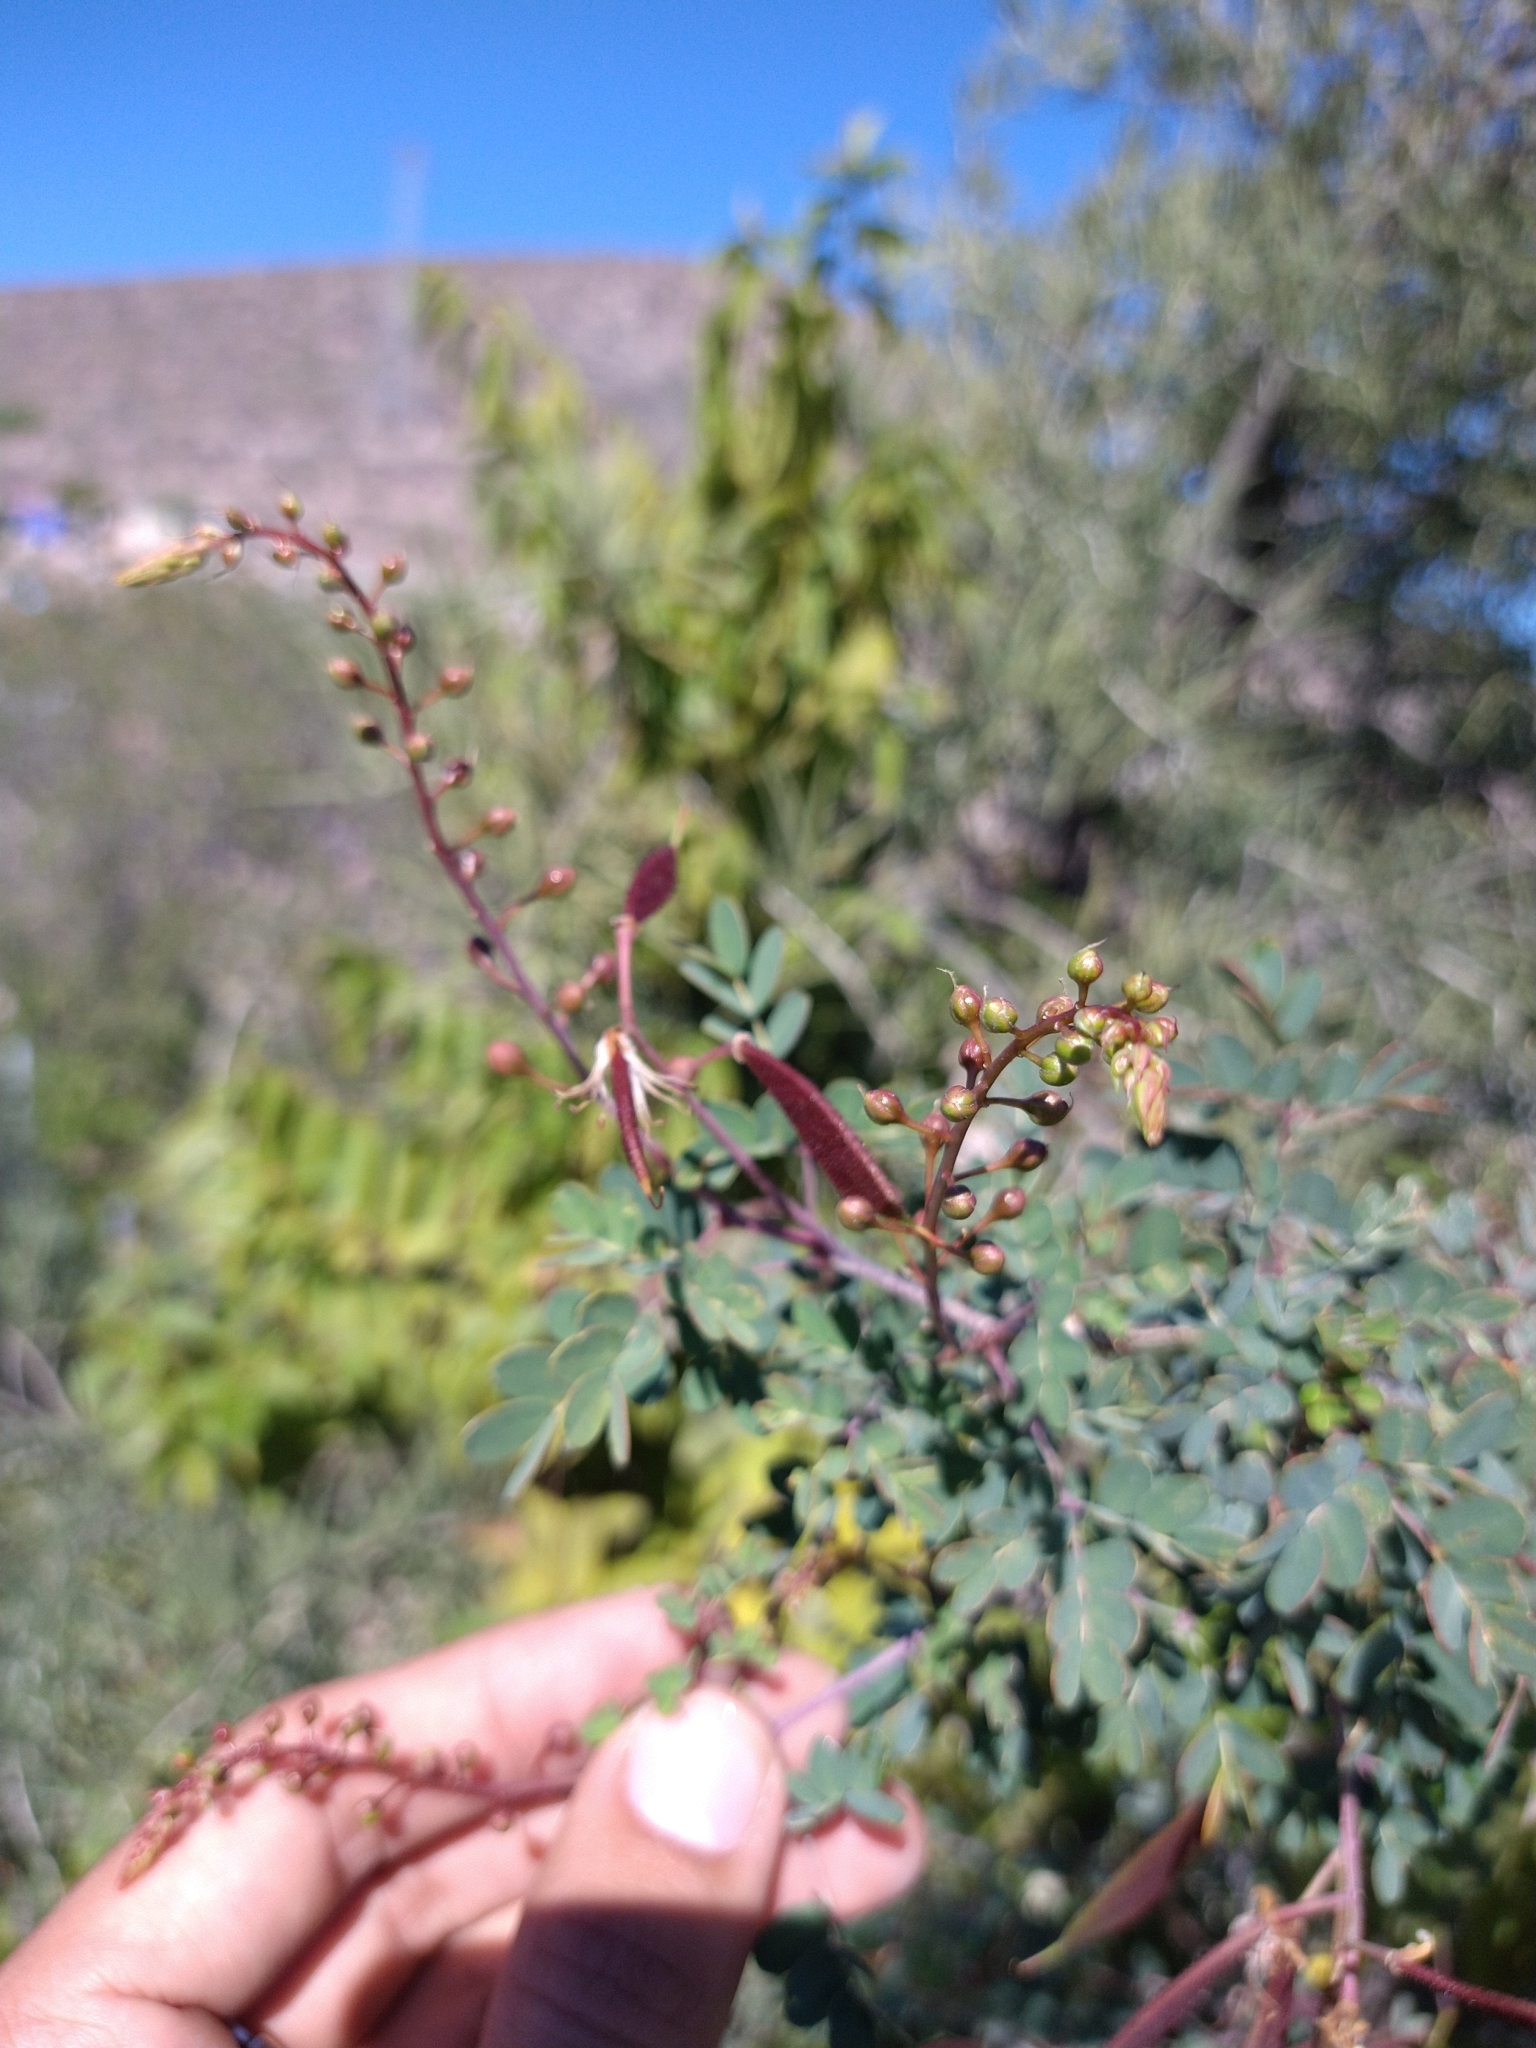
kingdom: Plantae
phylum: Tracheophyta
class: Magnoliopsida
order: Fabales
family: Fabaceae
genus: Erythrostemon
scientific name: Erythrostemon pannosus
